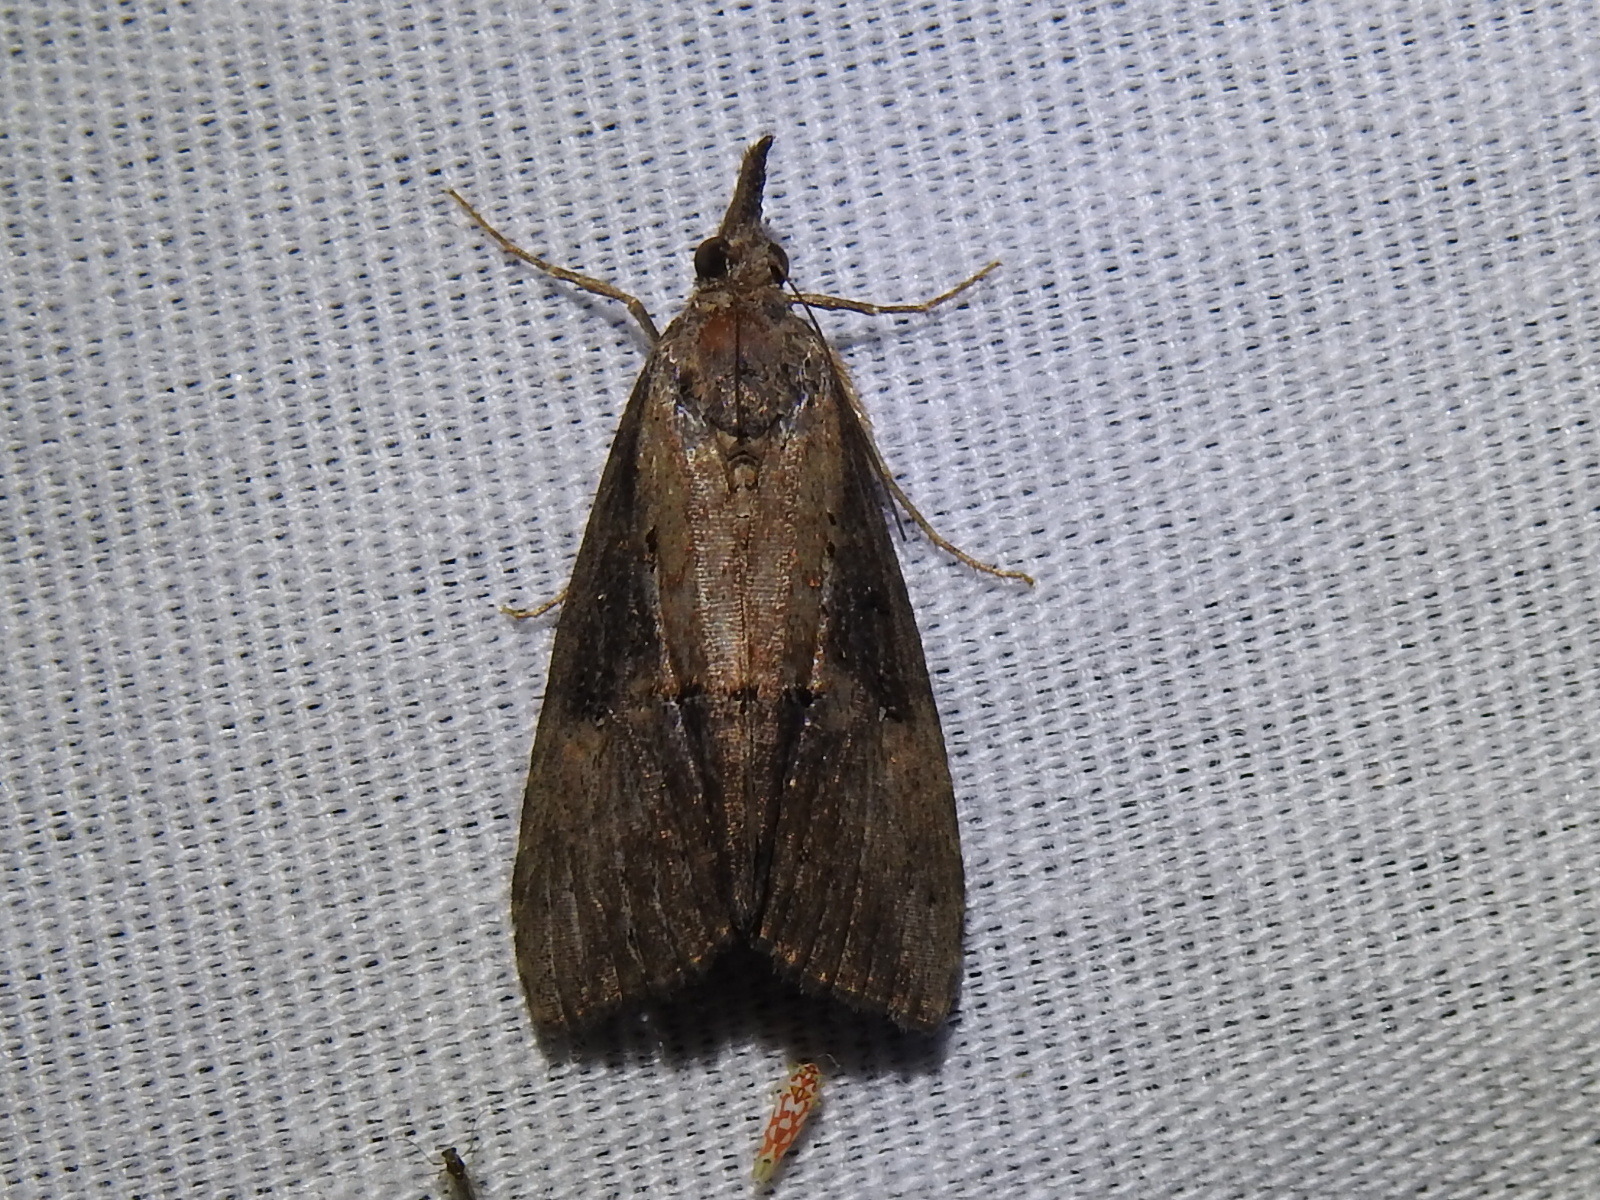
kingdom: Animalia
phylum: Arthropoda
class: Insecta
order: Lepidoptera
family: Erebidae
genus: Hypena
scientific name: Hypena scabra
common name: Green cloverworm
